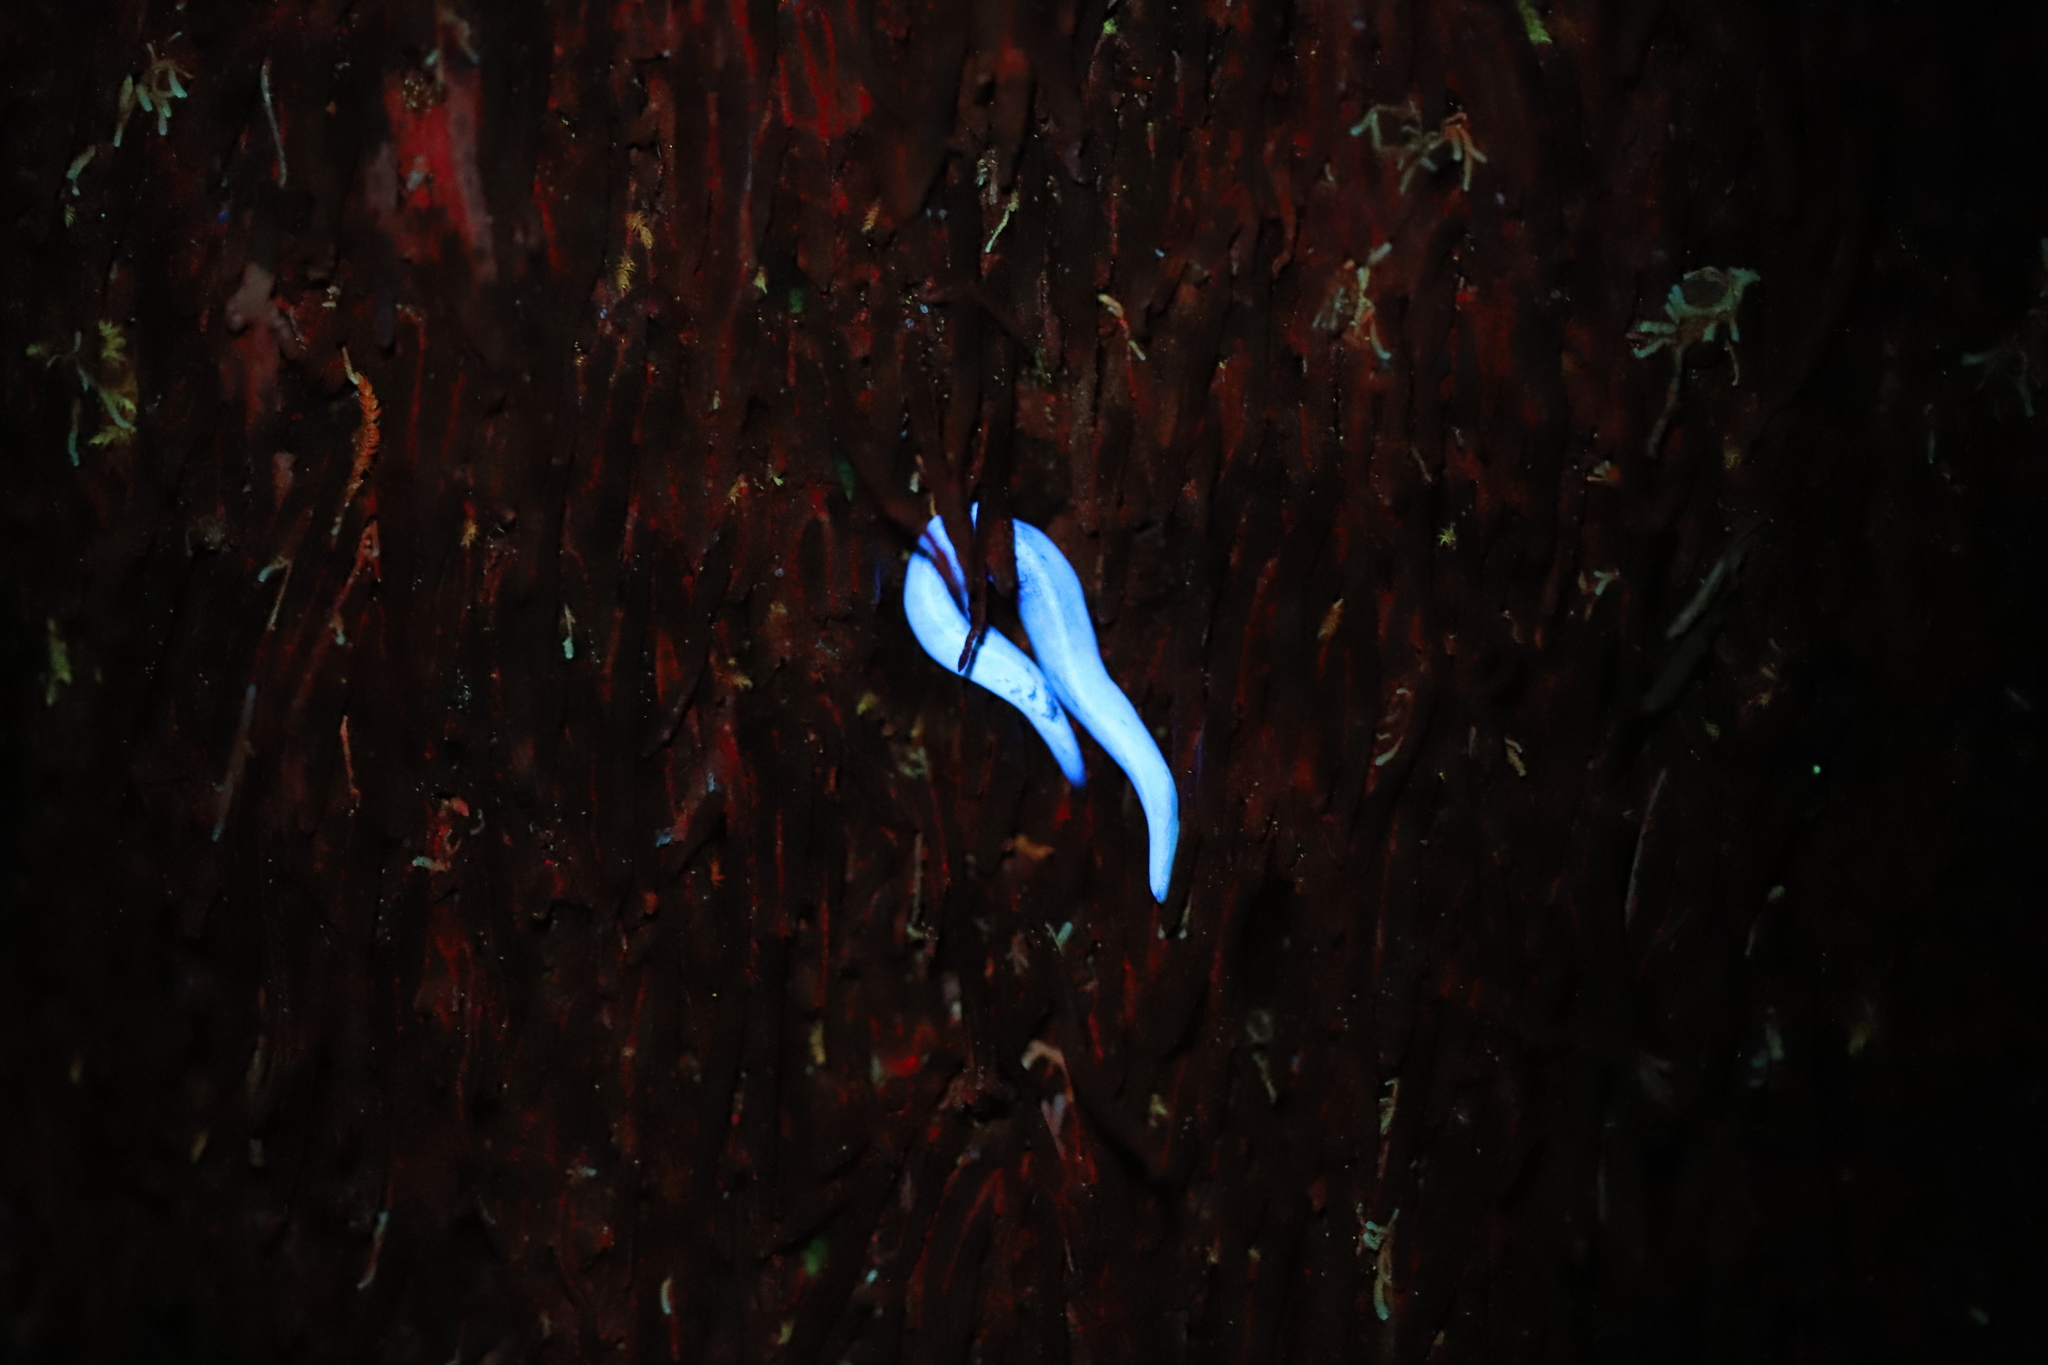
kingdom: Animalia
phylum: Platyhelminthes
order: Tricladida
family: Geoplanidae
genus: Lenkunya
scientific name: Lenkunya adae
